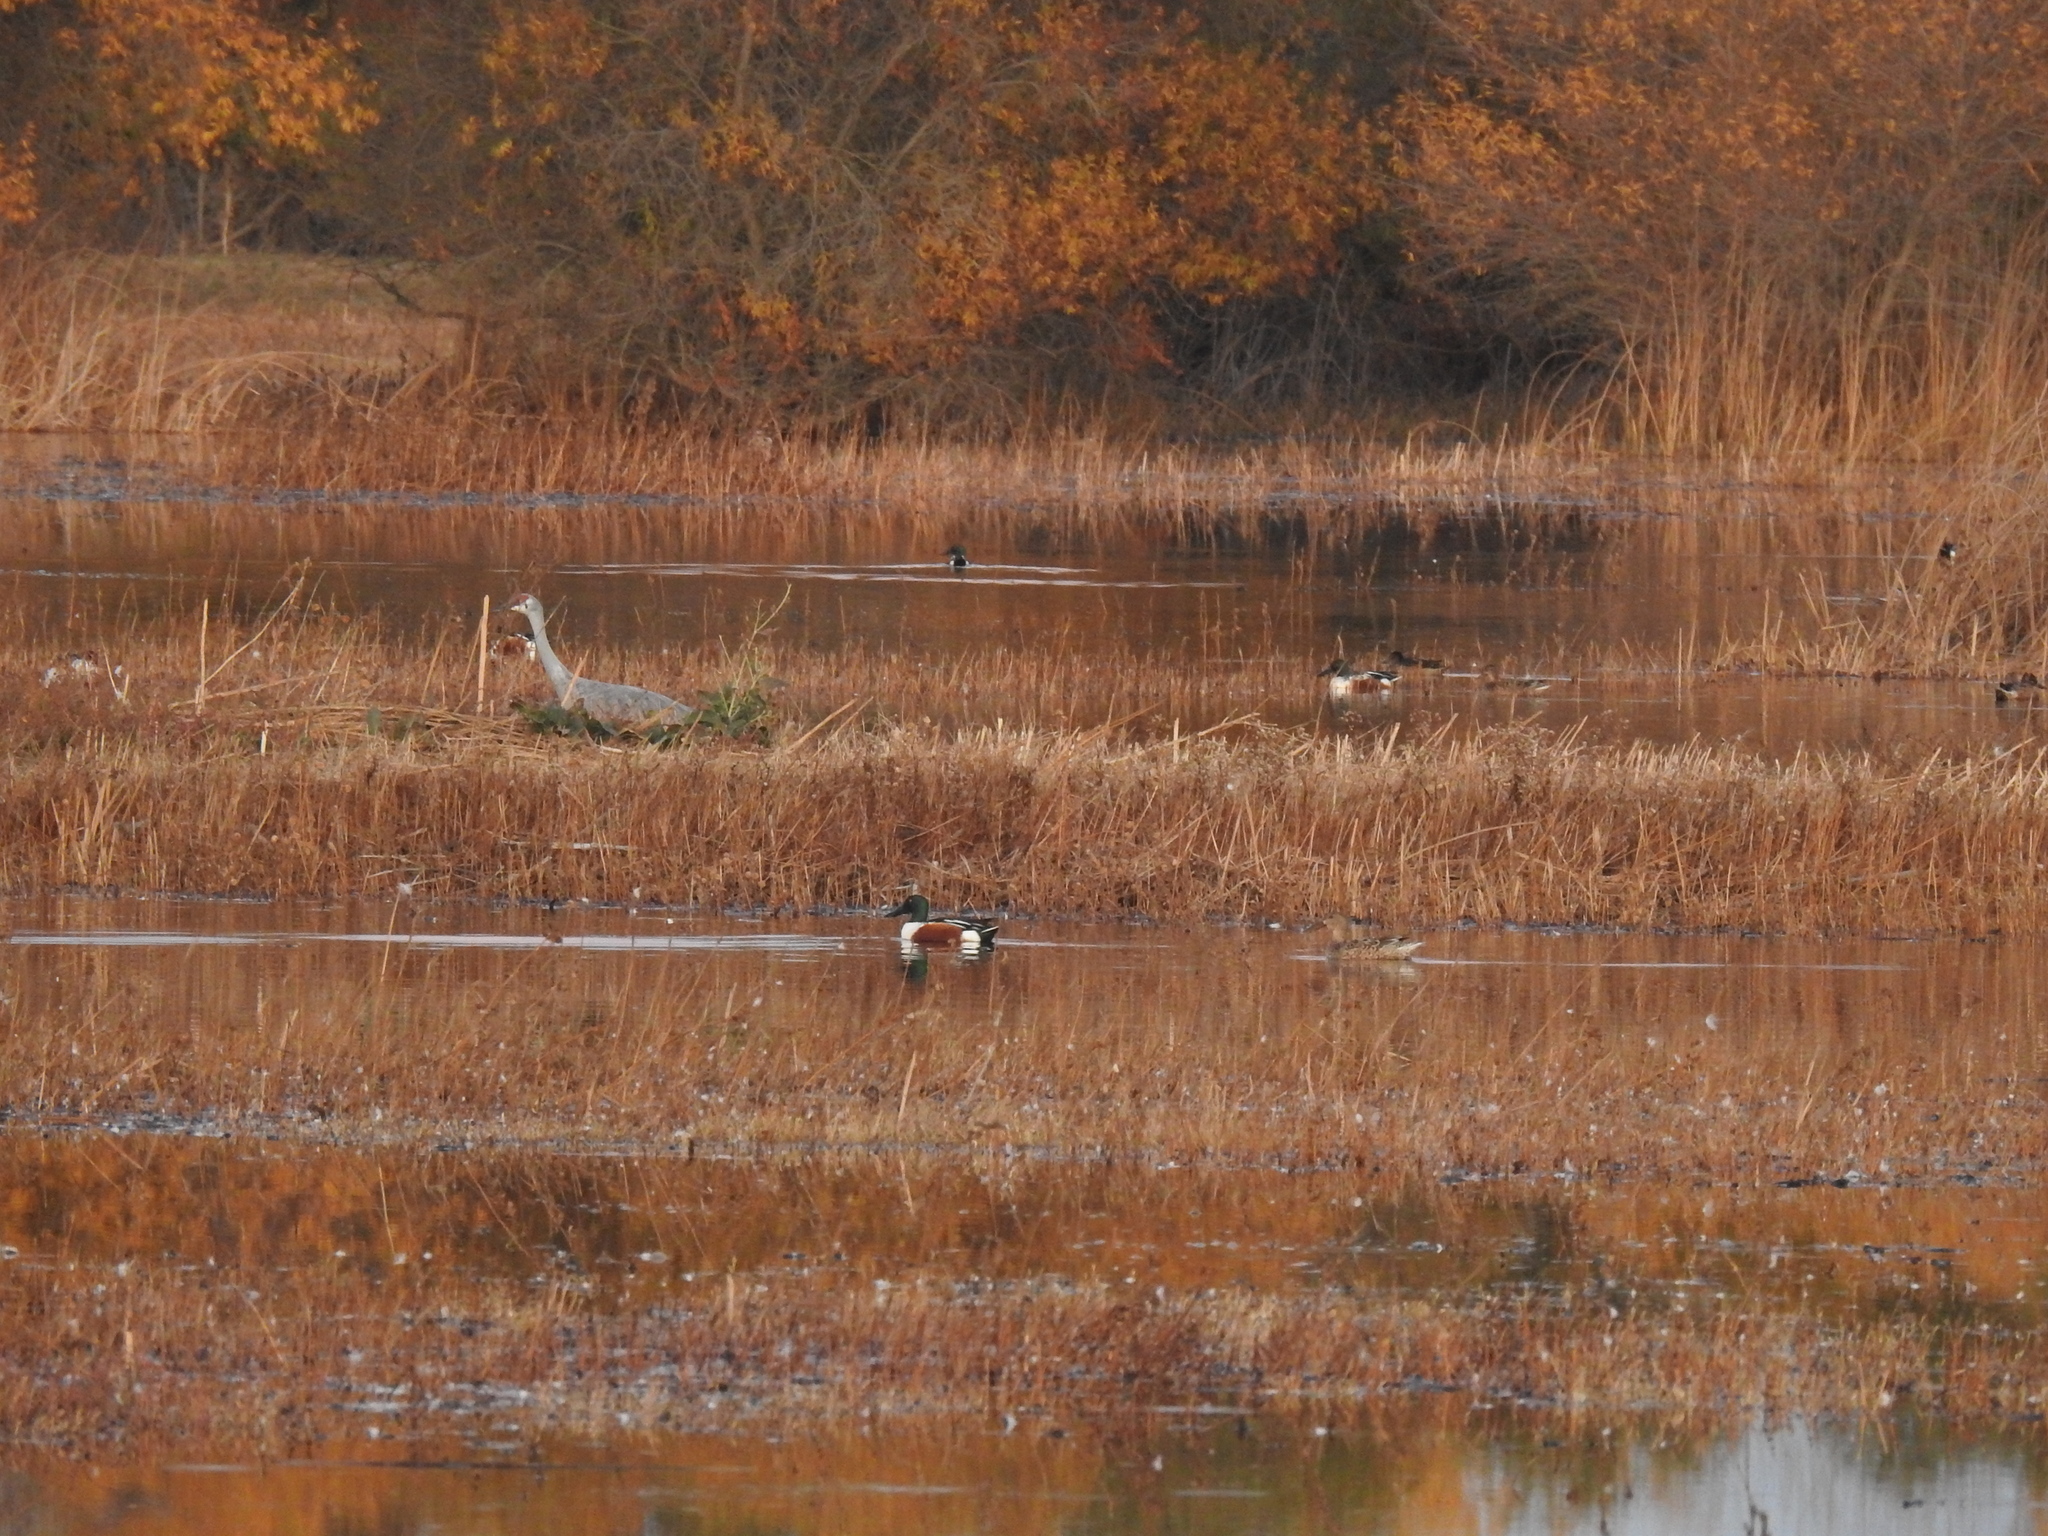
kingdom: Animalia
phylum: Chordata
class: Aves
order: Anseriformes
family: Anatidae
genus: Spatula
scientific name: Spatula clypeata
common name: Northern shoveler
